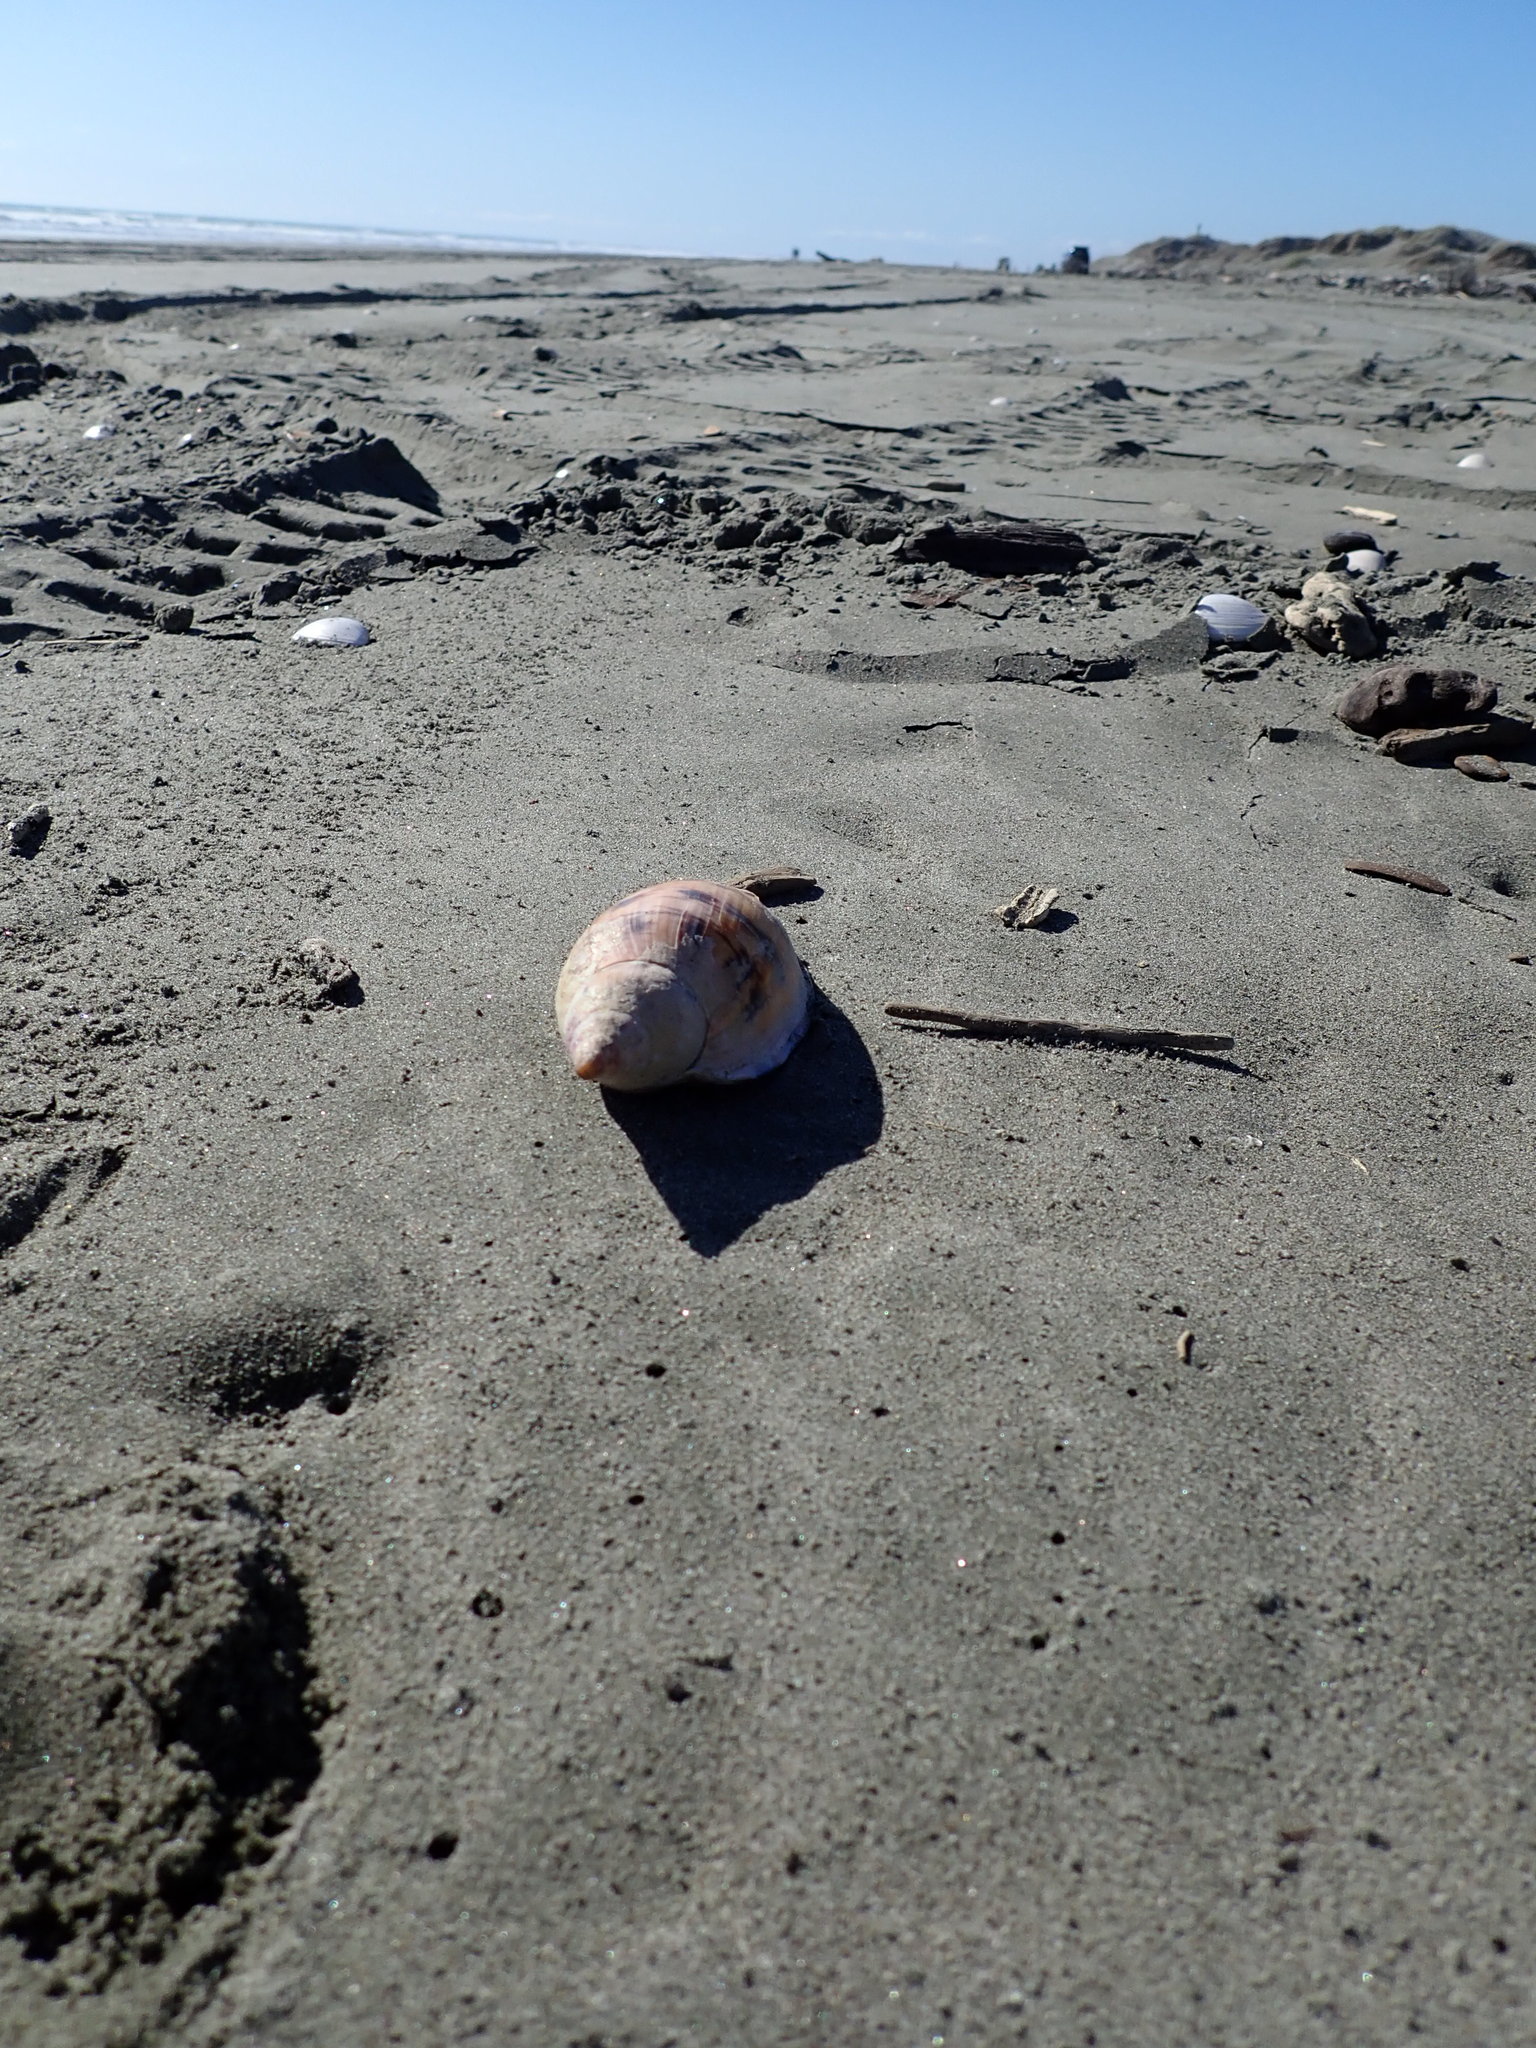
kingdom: Animalia
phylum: Mollusca
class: Gastropoda
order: Neogastropoda
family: Volutidae
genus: Alcithoe
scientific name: Alcithoe arabica
